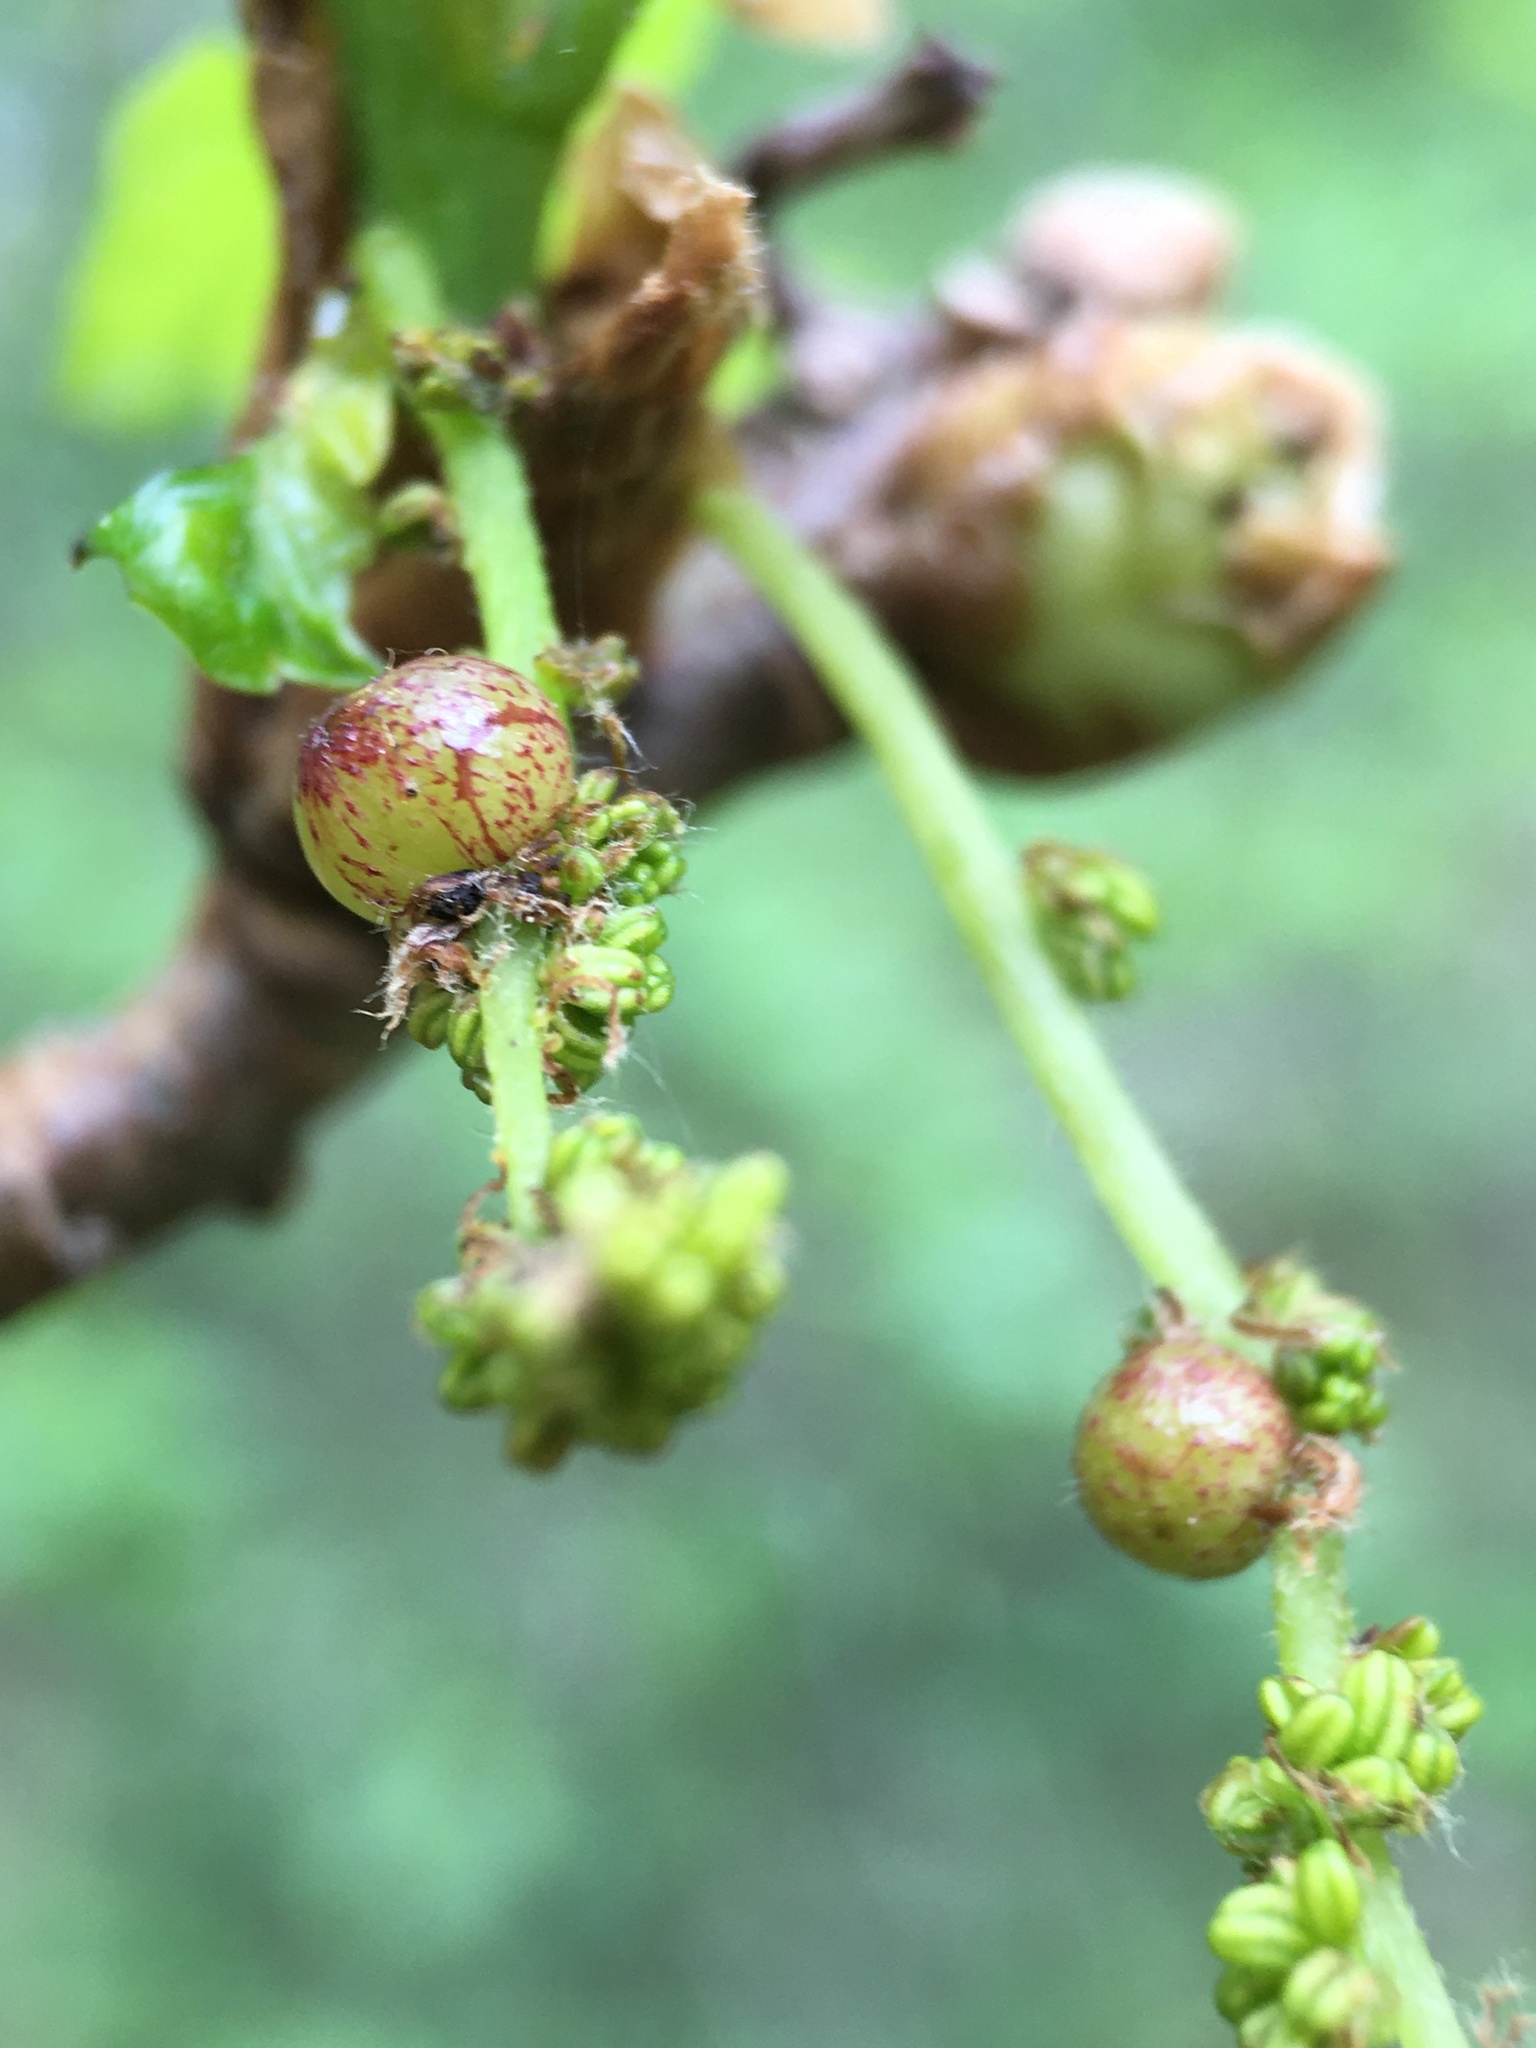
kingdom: Animalia
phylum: Arthropoda
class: Insecta
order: Hymenoptera
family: Cynipidae
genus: Neuroterus
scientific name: Neuroterus quercusbaccarum
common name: Common spangle gall
